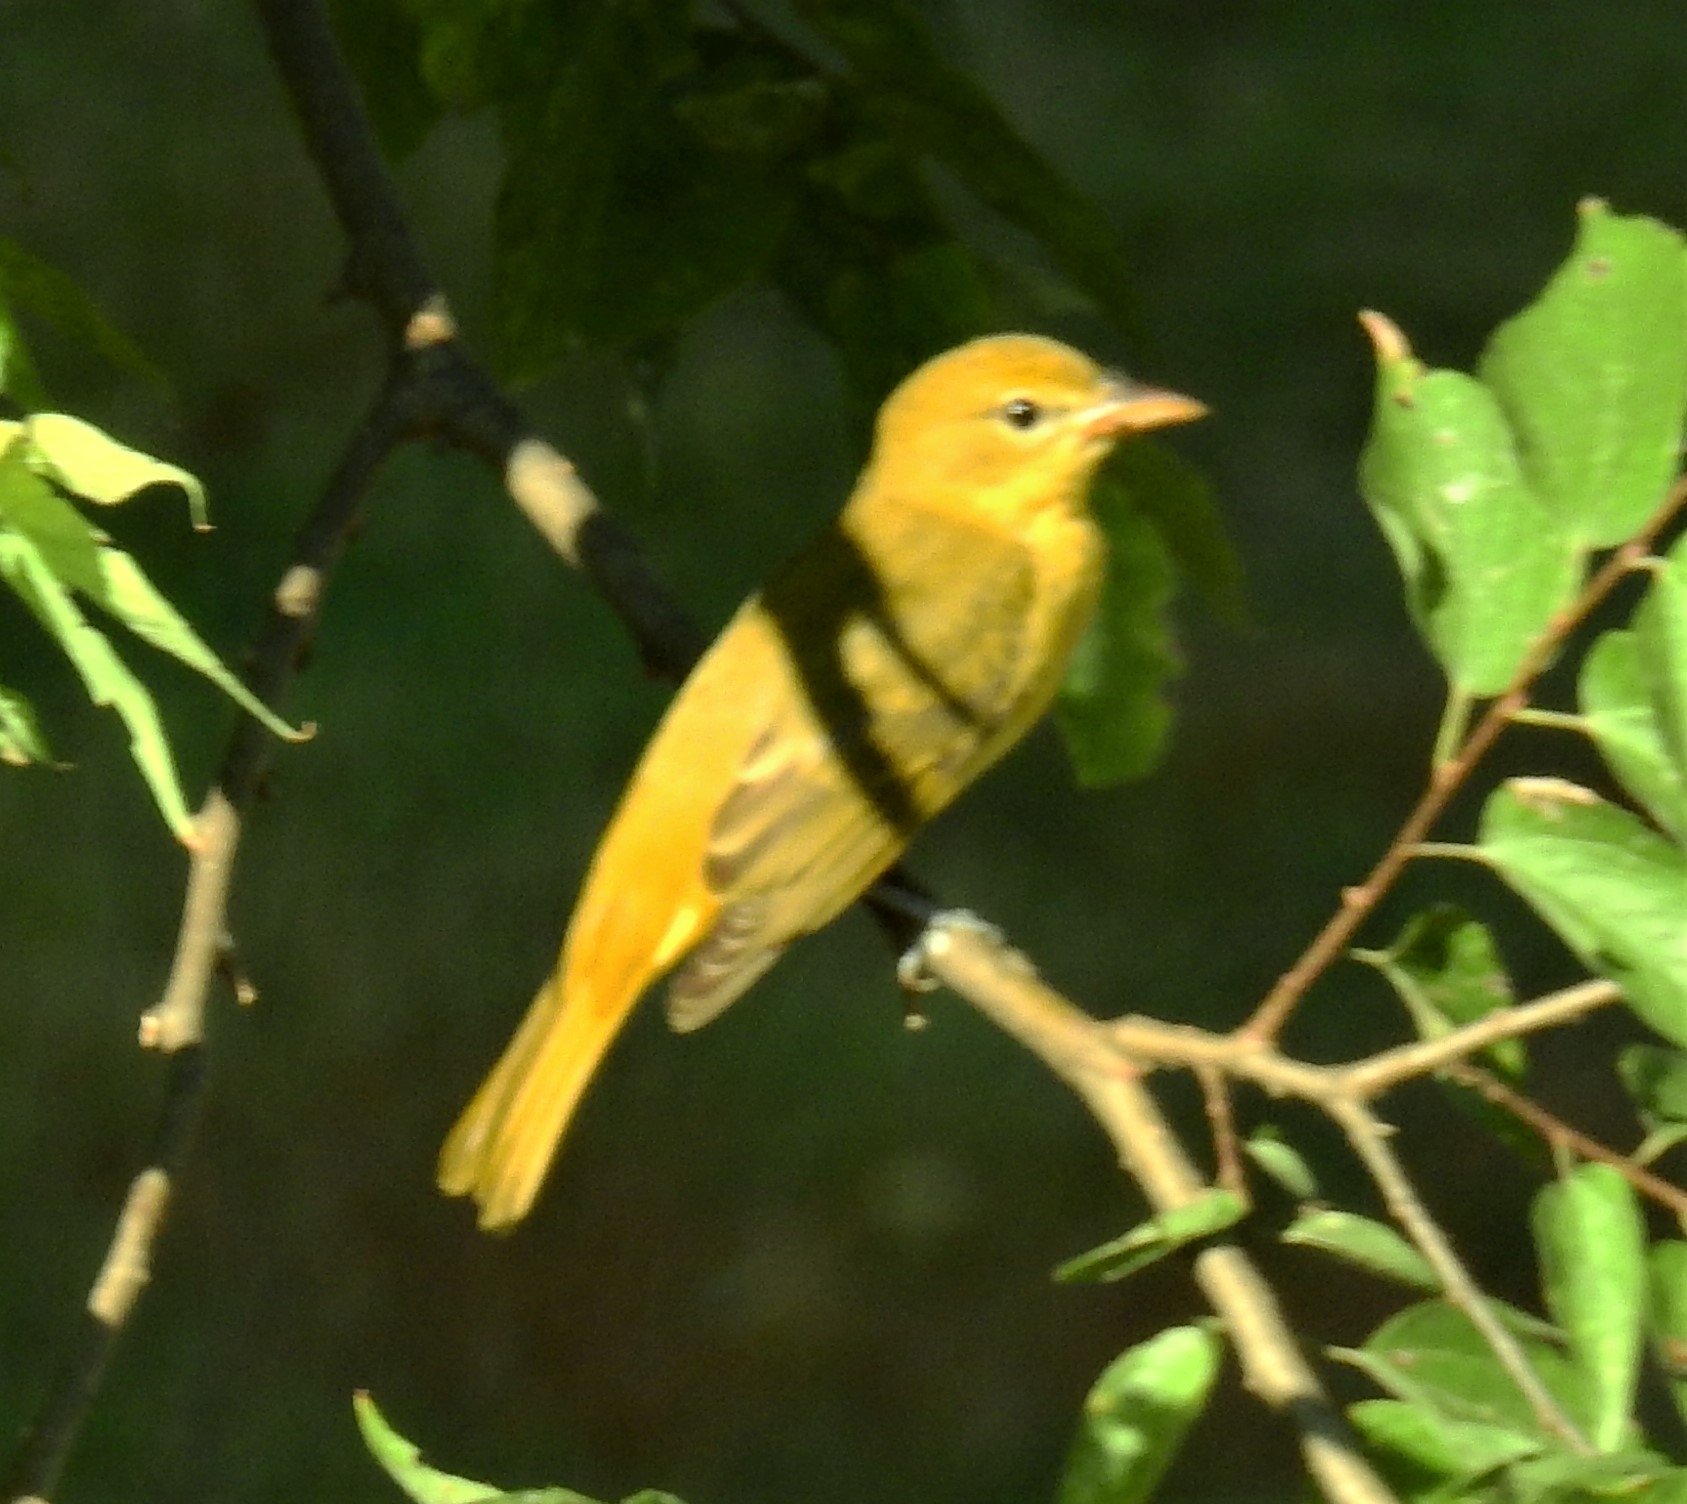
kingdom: Animalia
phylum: Chordata
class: Aves
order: Passeriformes
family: Cardinalidae
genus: Piranga
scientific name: Piranga rubra
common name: Summer tanager
